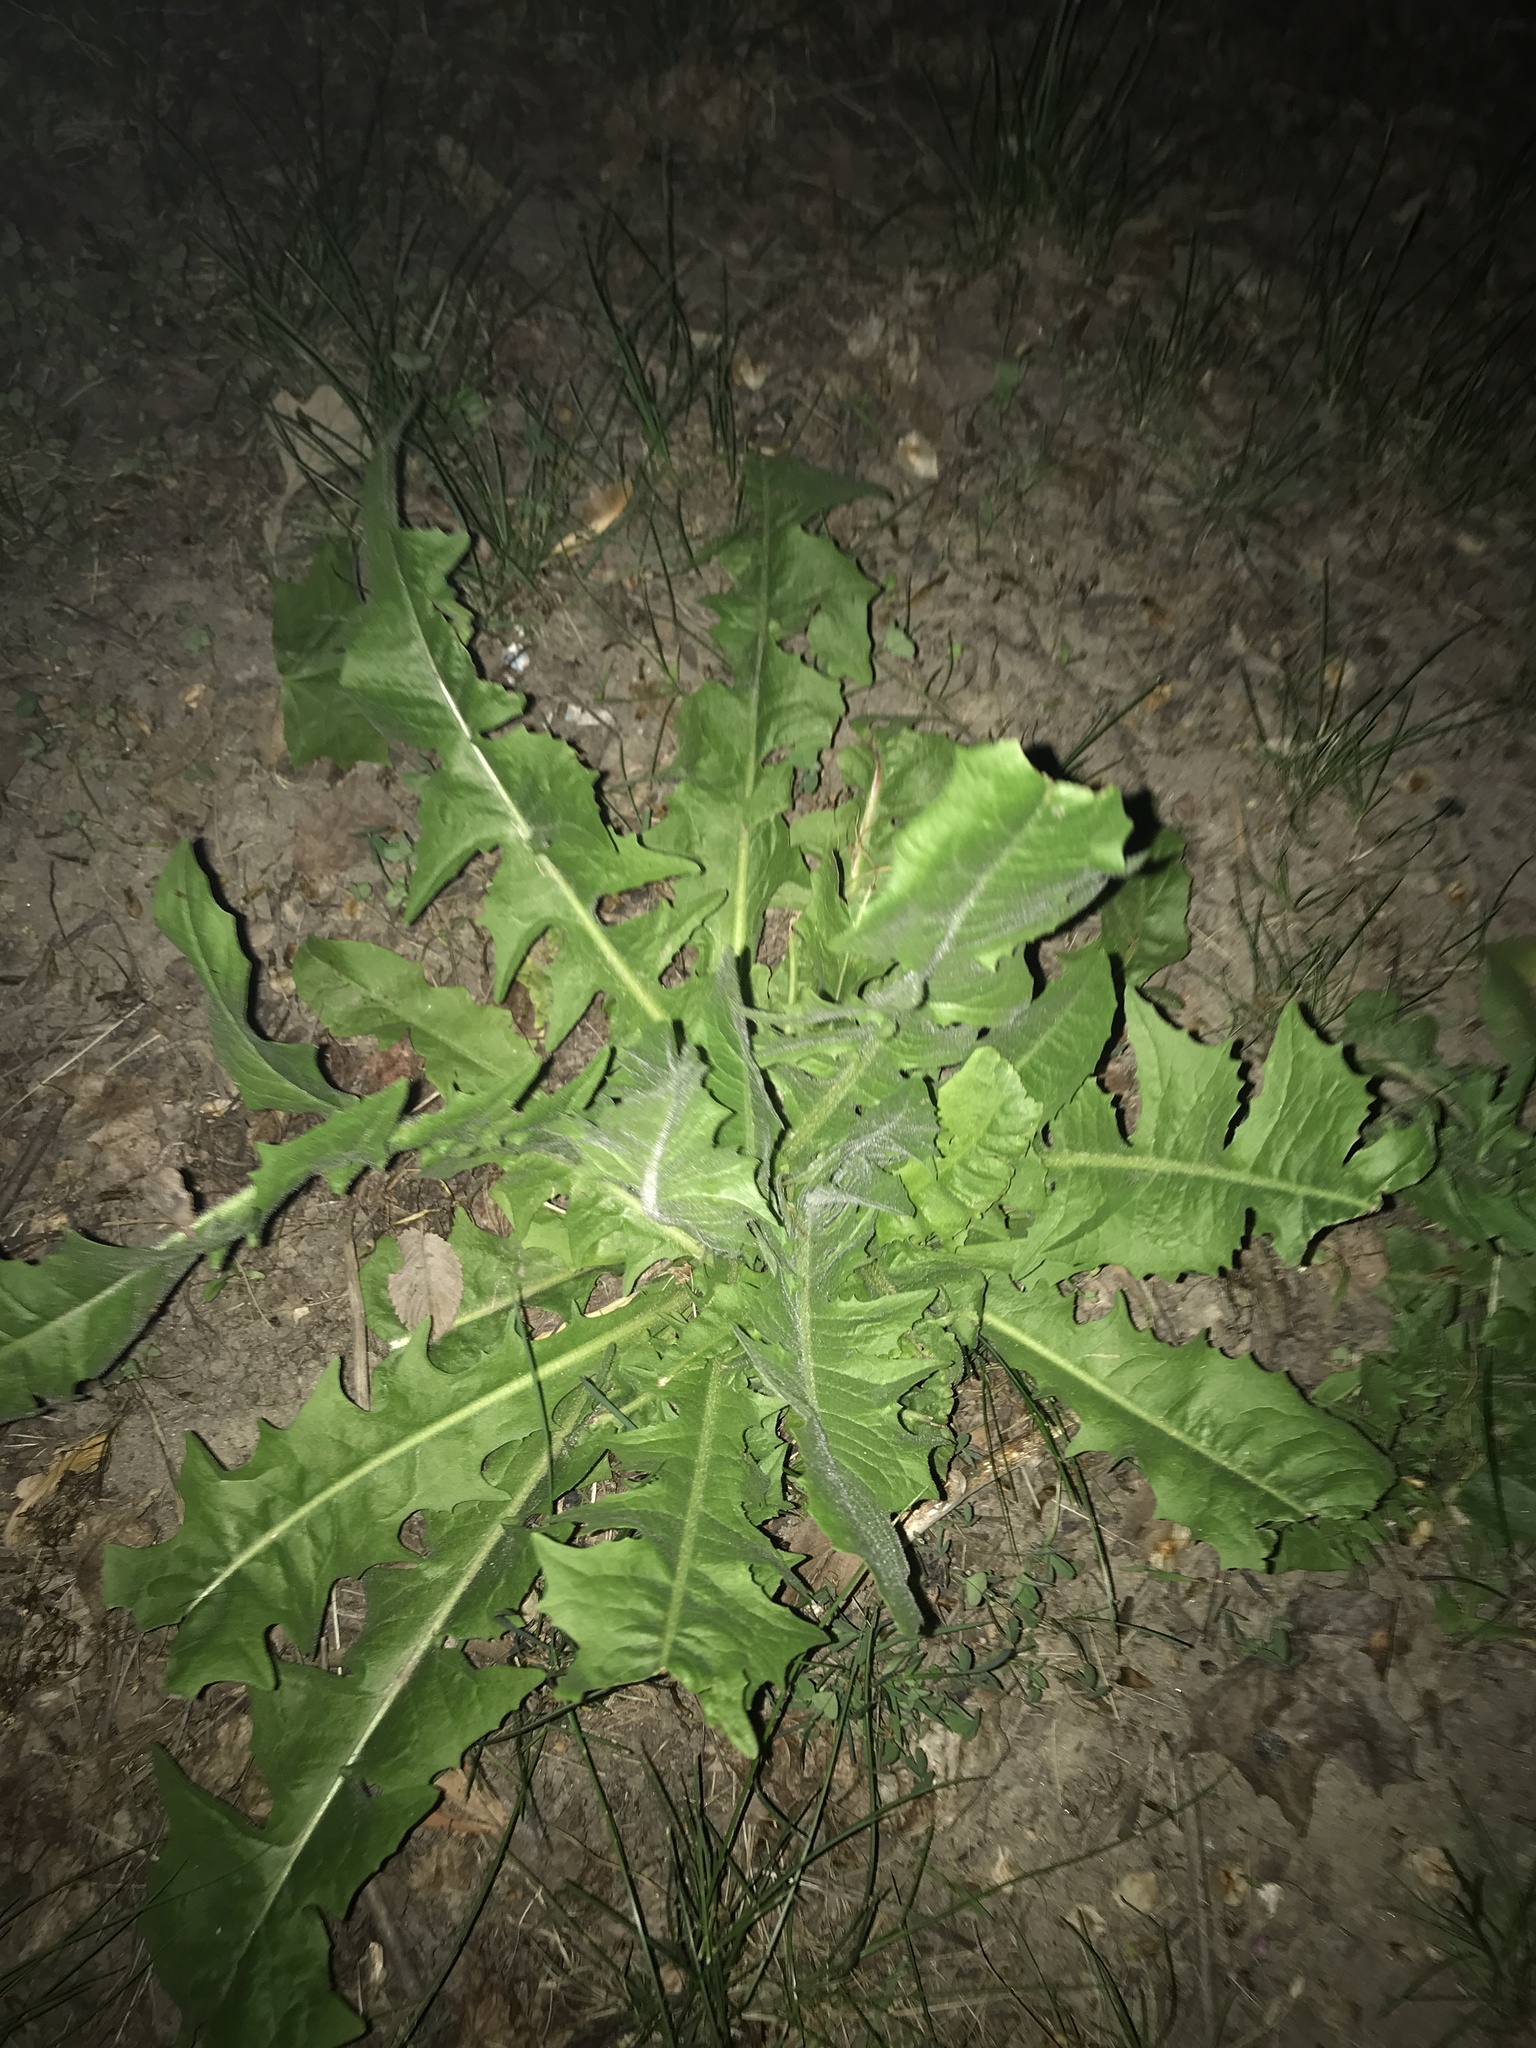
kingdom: Plantae
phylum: Tracheophyta
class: Magnoliopsida
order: Asterales
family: Asteraceae
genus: Taraxacum
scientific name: Taraxacum officinale
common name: Common dandelion
